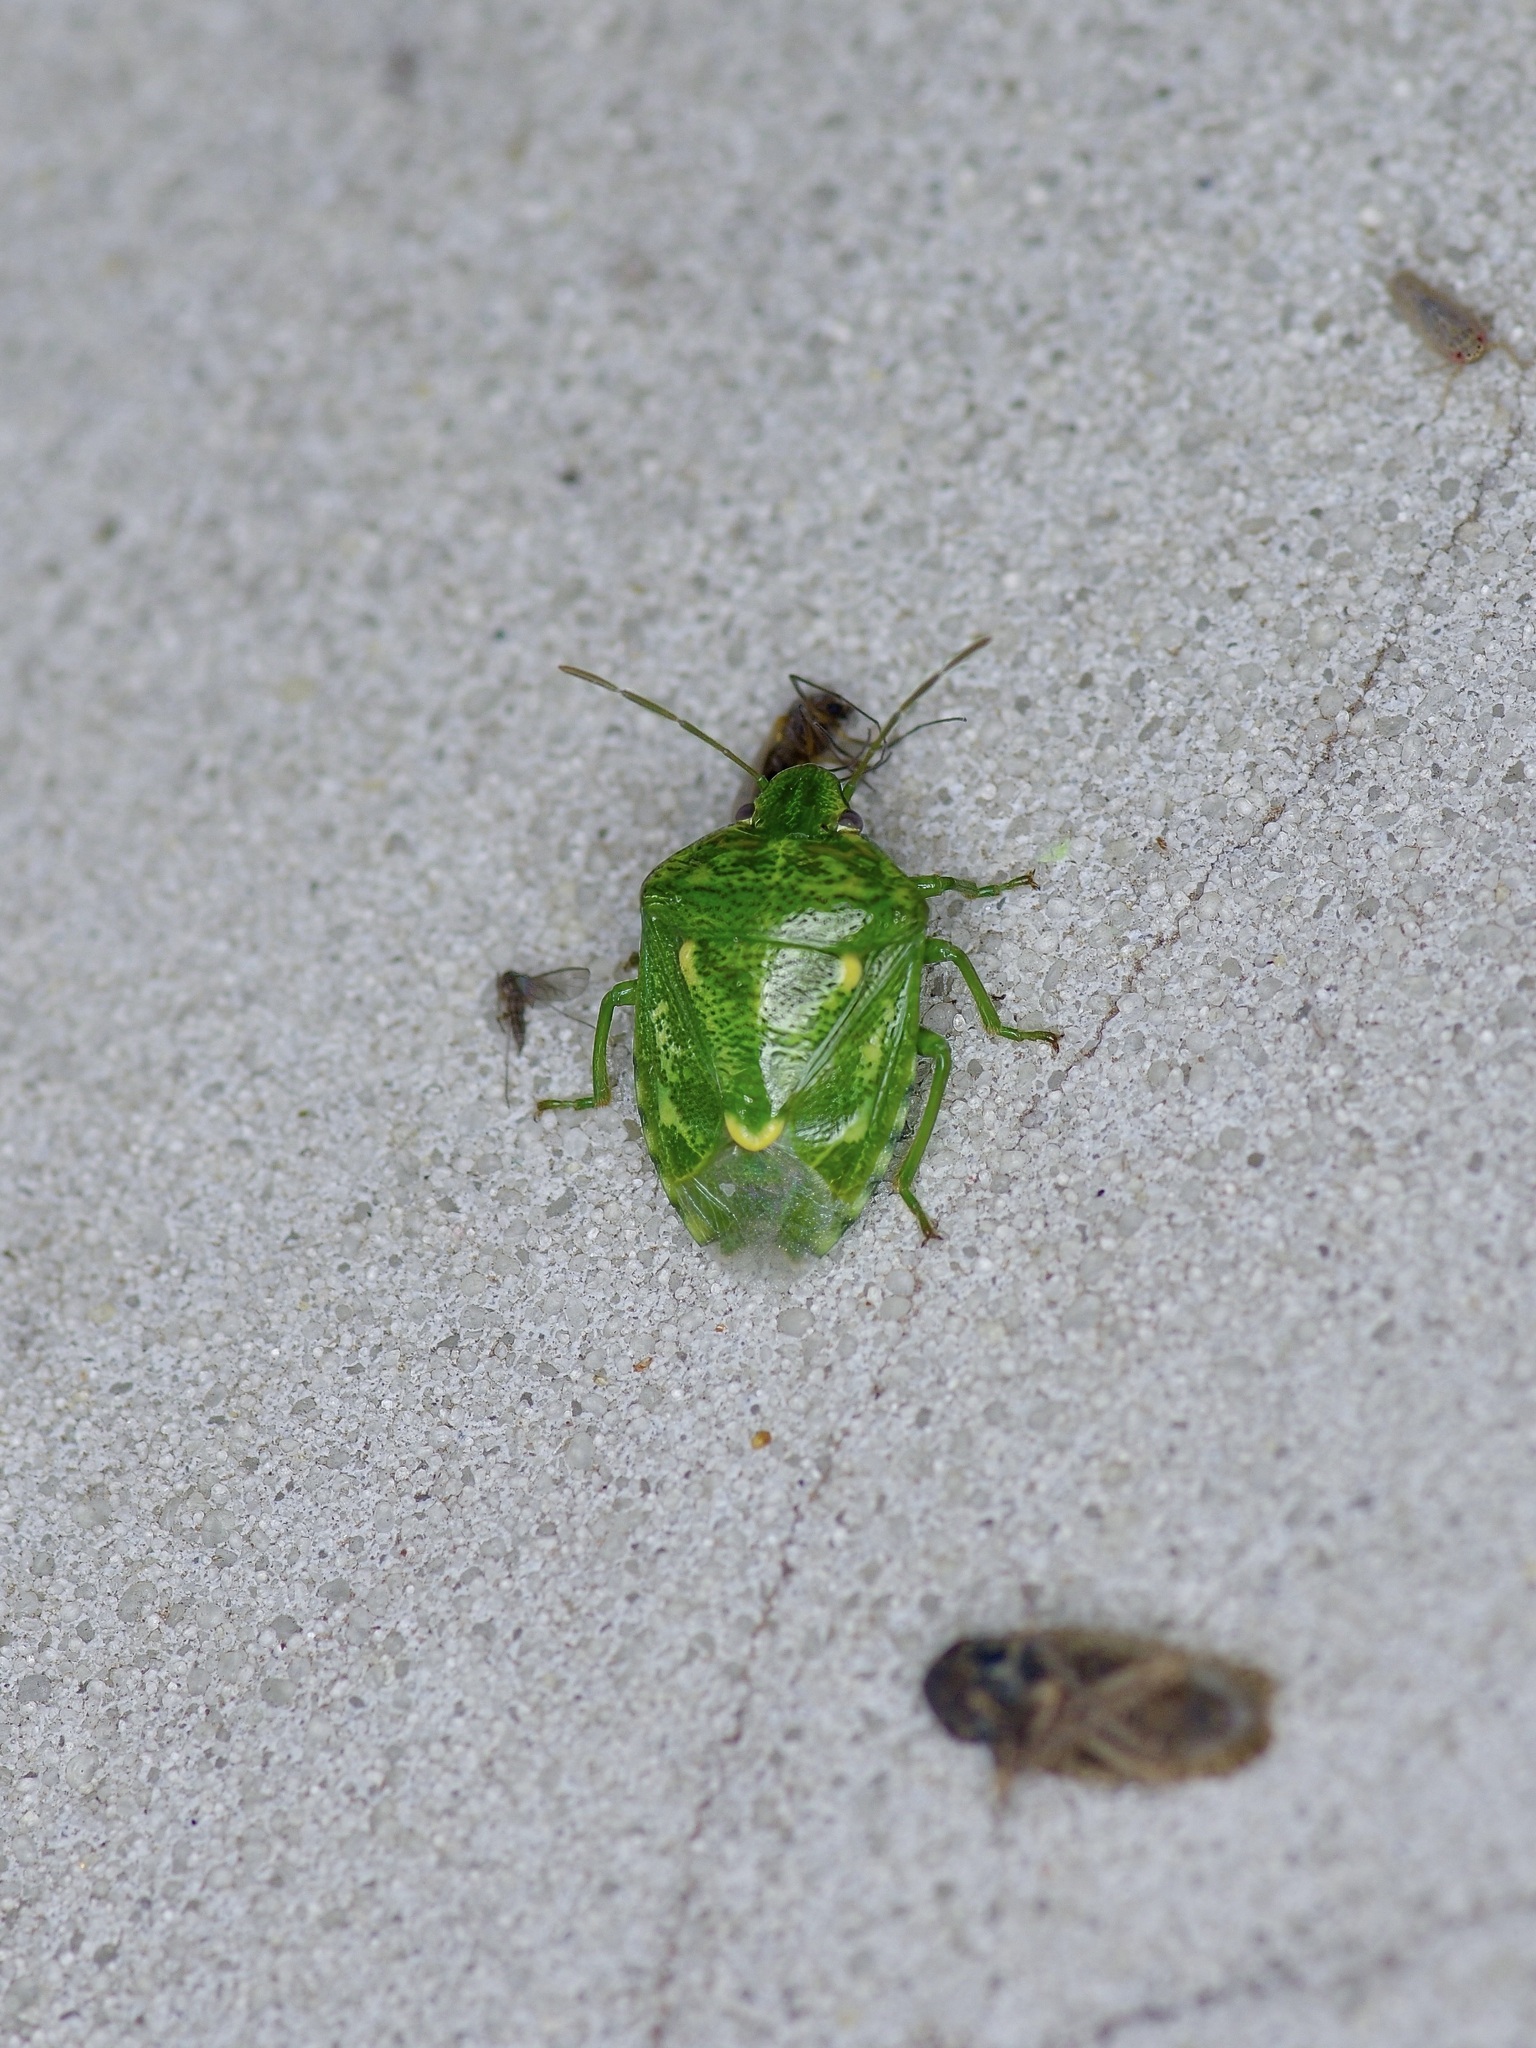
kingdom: Animalia
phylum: Arthropoda
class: Insecta
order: Hemiptera
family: Pentatomidae
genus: Banasa
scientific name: Banasa euchlora
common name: Cedar berry bug
